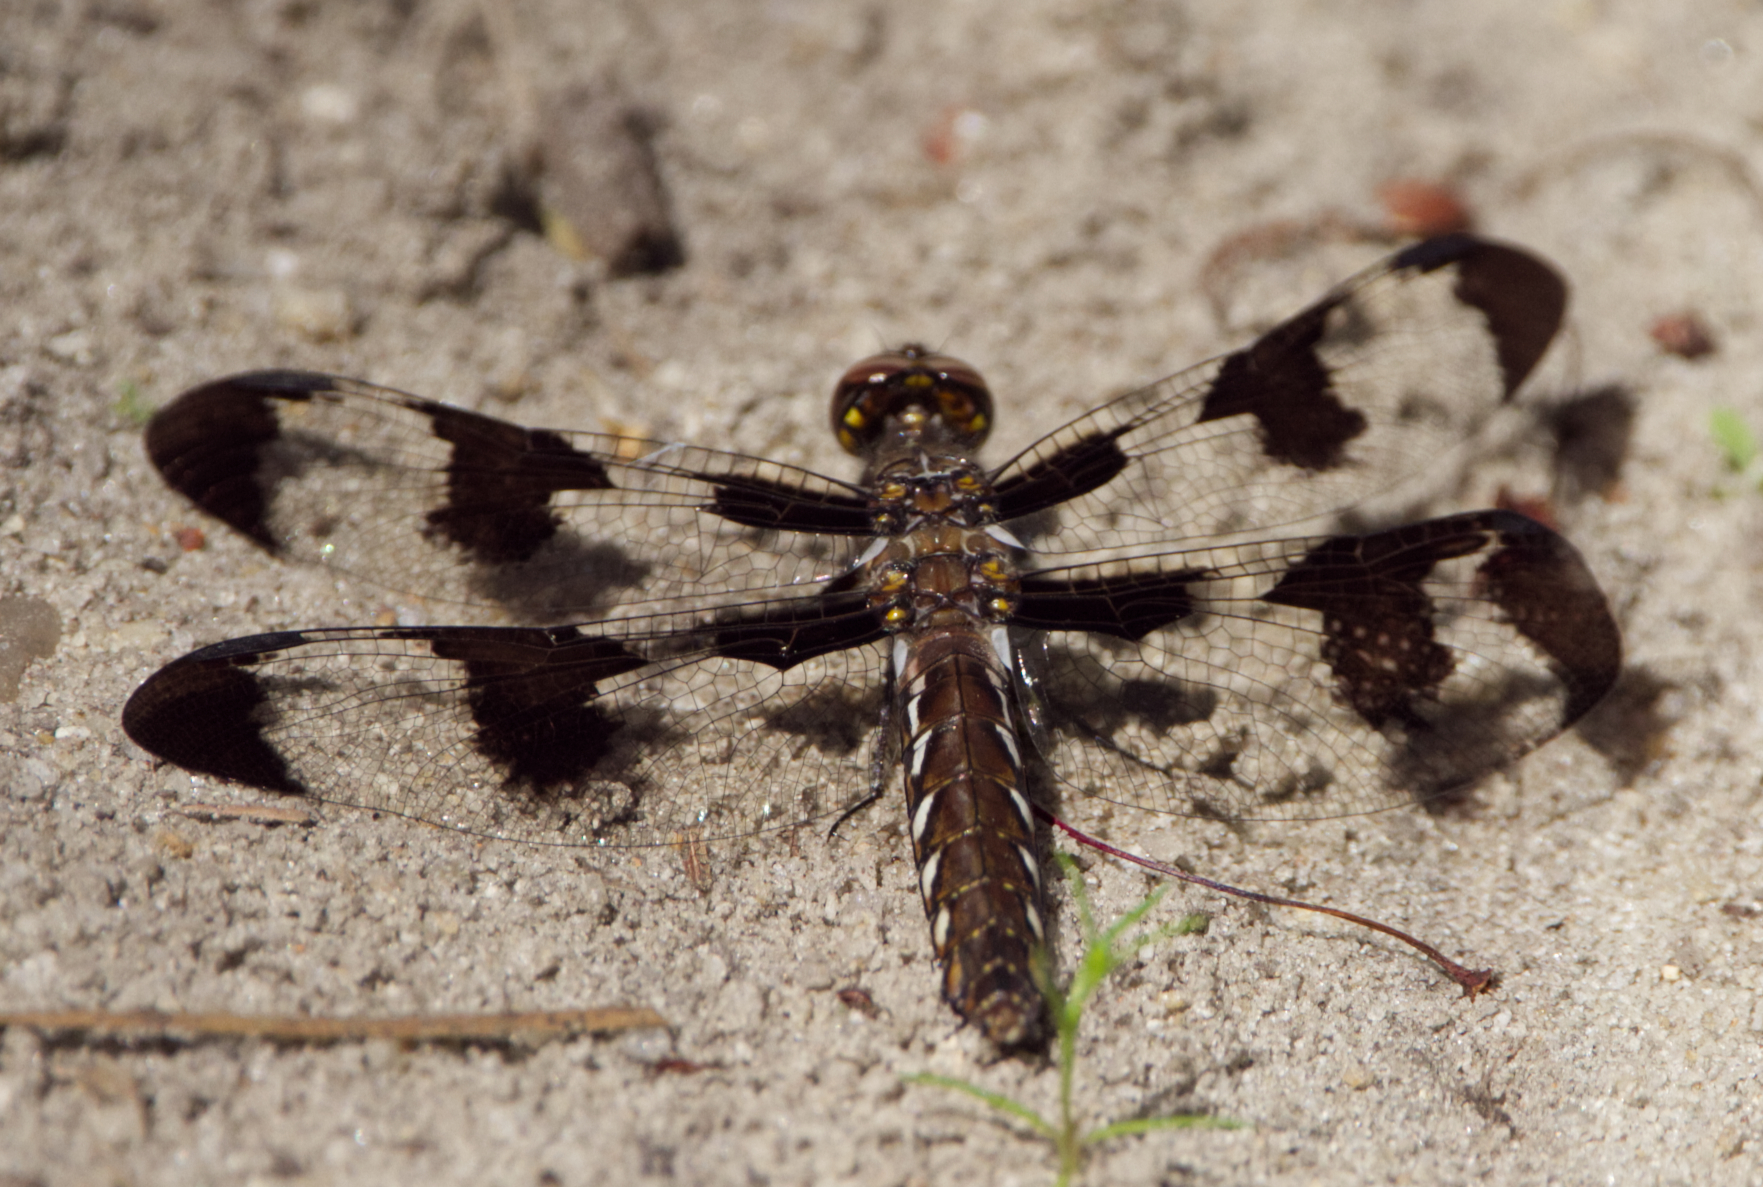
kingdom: Animalia
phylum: Arthropoda
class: Insecta
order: Odonata
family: Libellulidae
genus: Plathemis
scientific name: Plathemis lydia
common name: Common whitetail
